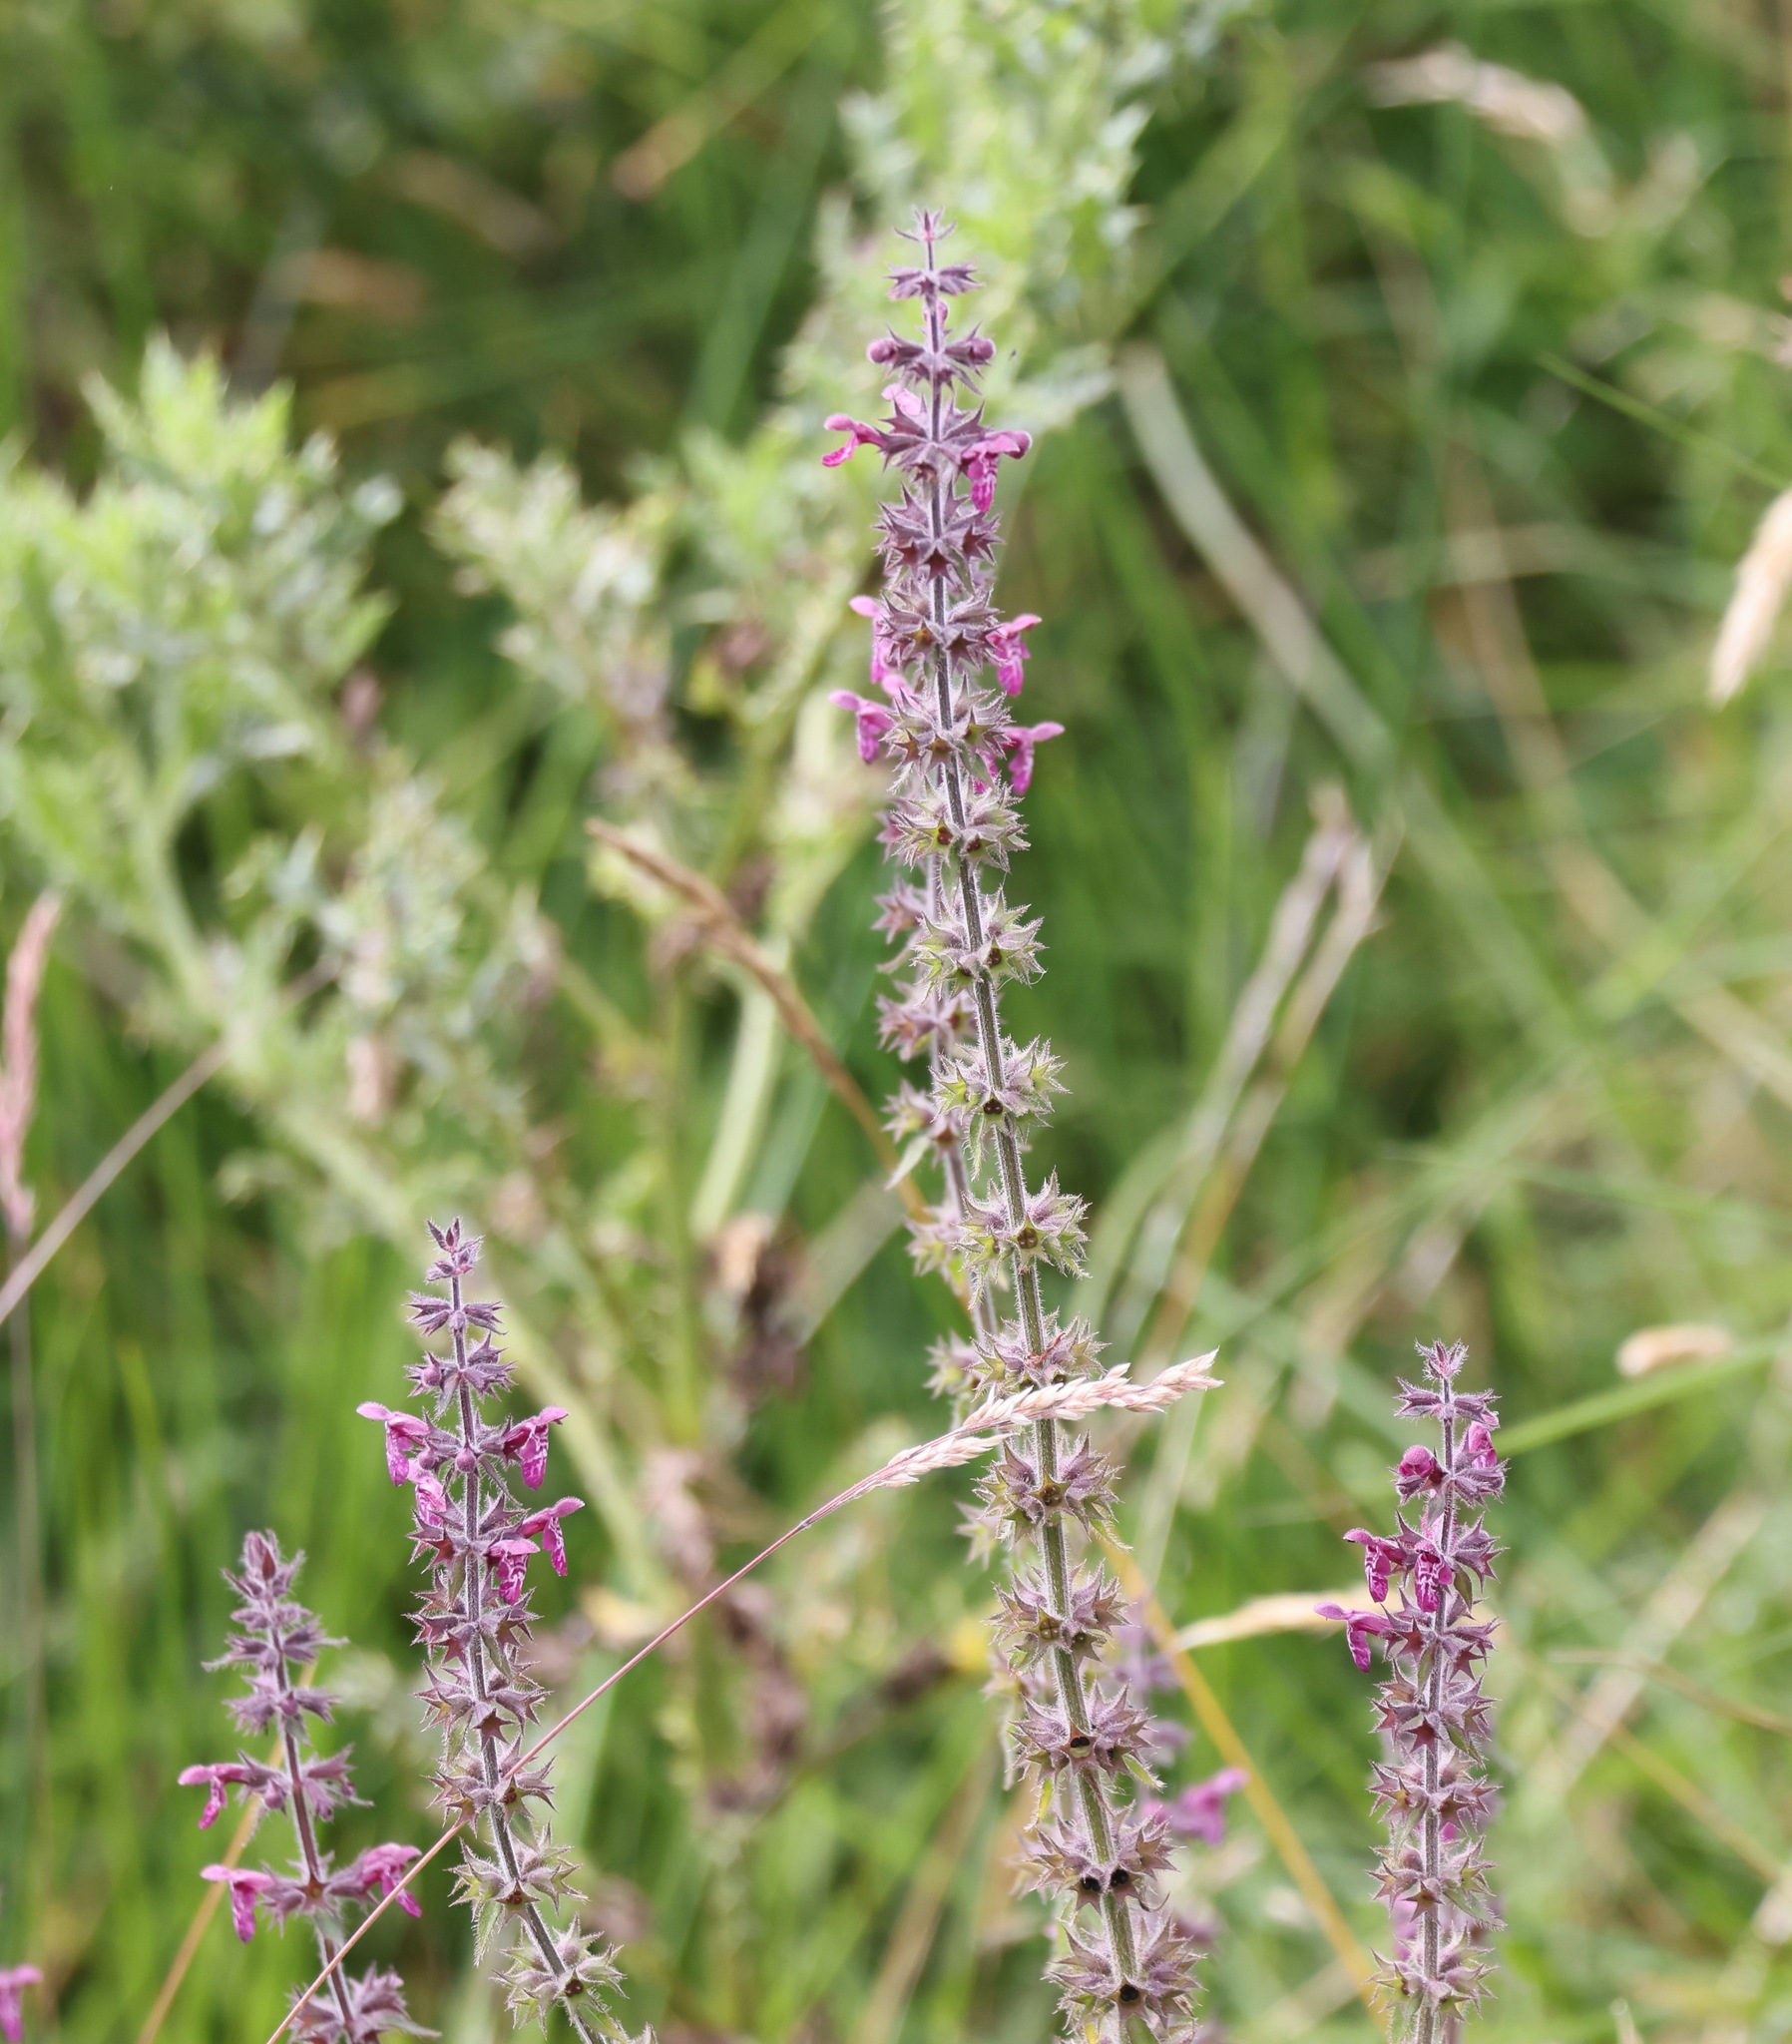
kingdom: Plantae
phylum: Tracheophyta
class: Magnoliopsida
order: Lamiales
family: Lamiaceae
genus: Stachys
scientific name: Stachys sylvatica
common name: Hedge woundwort
